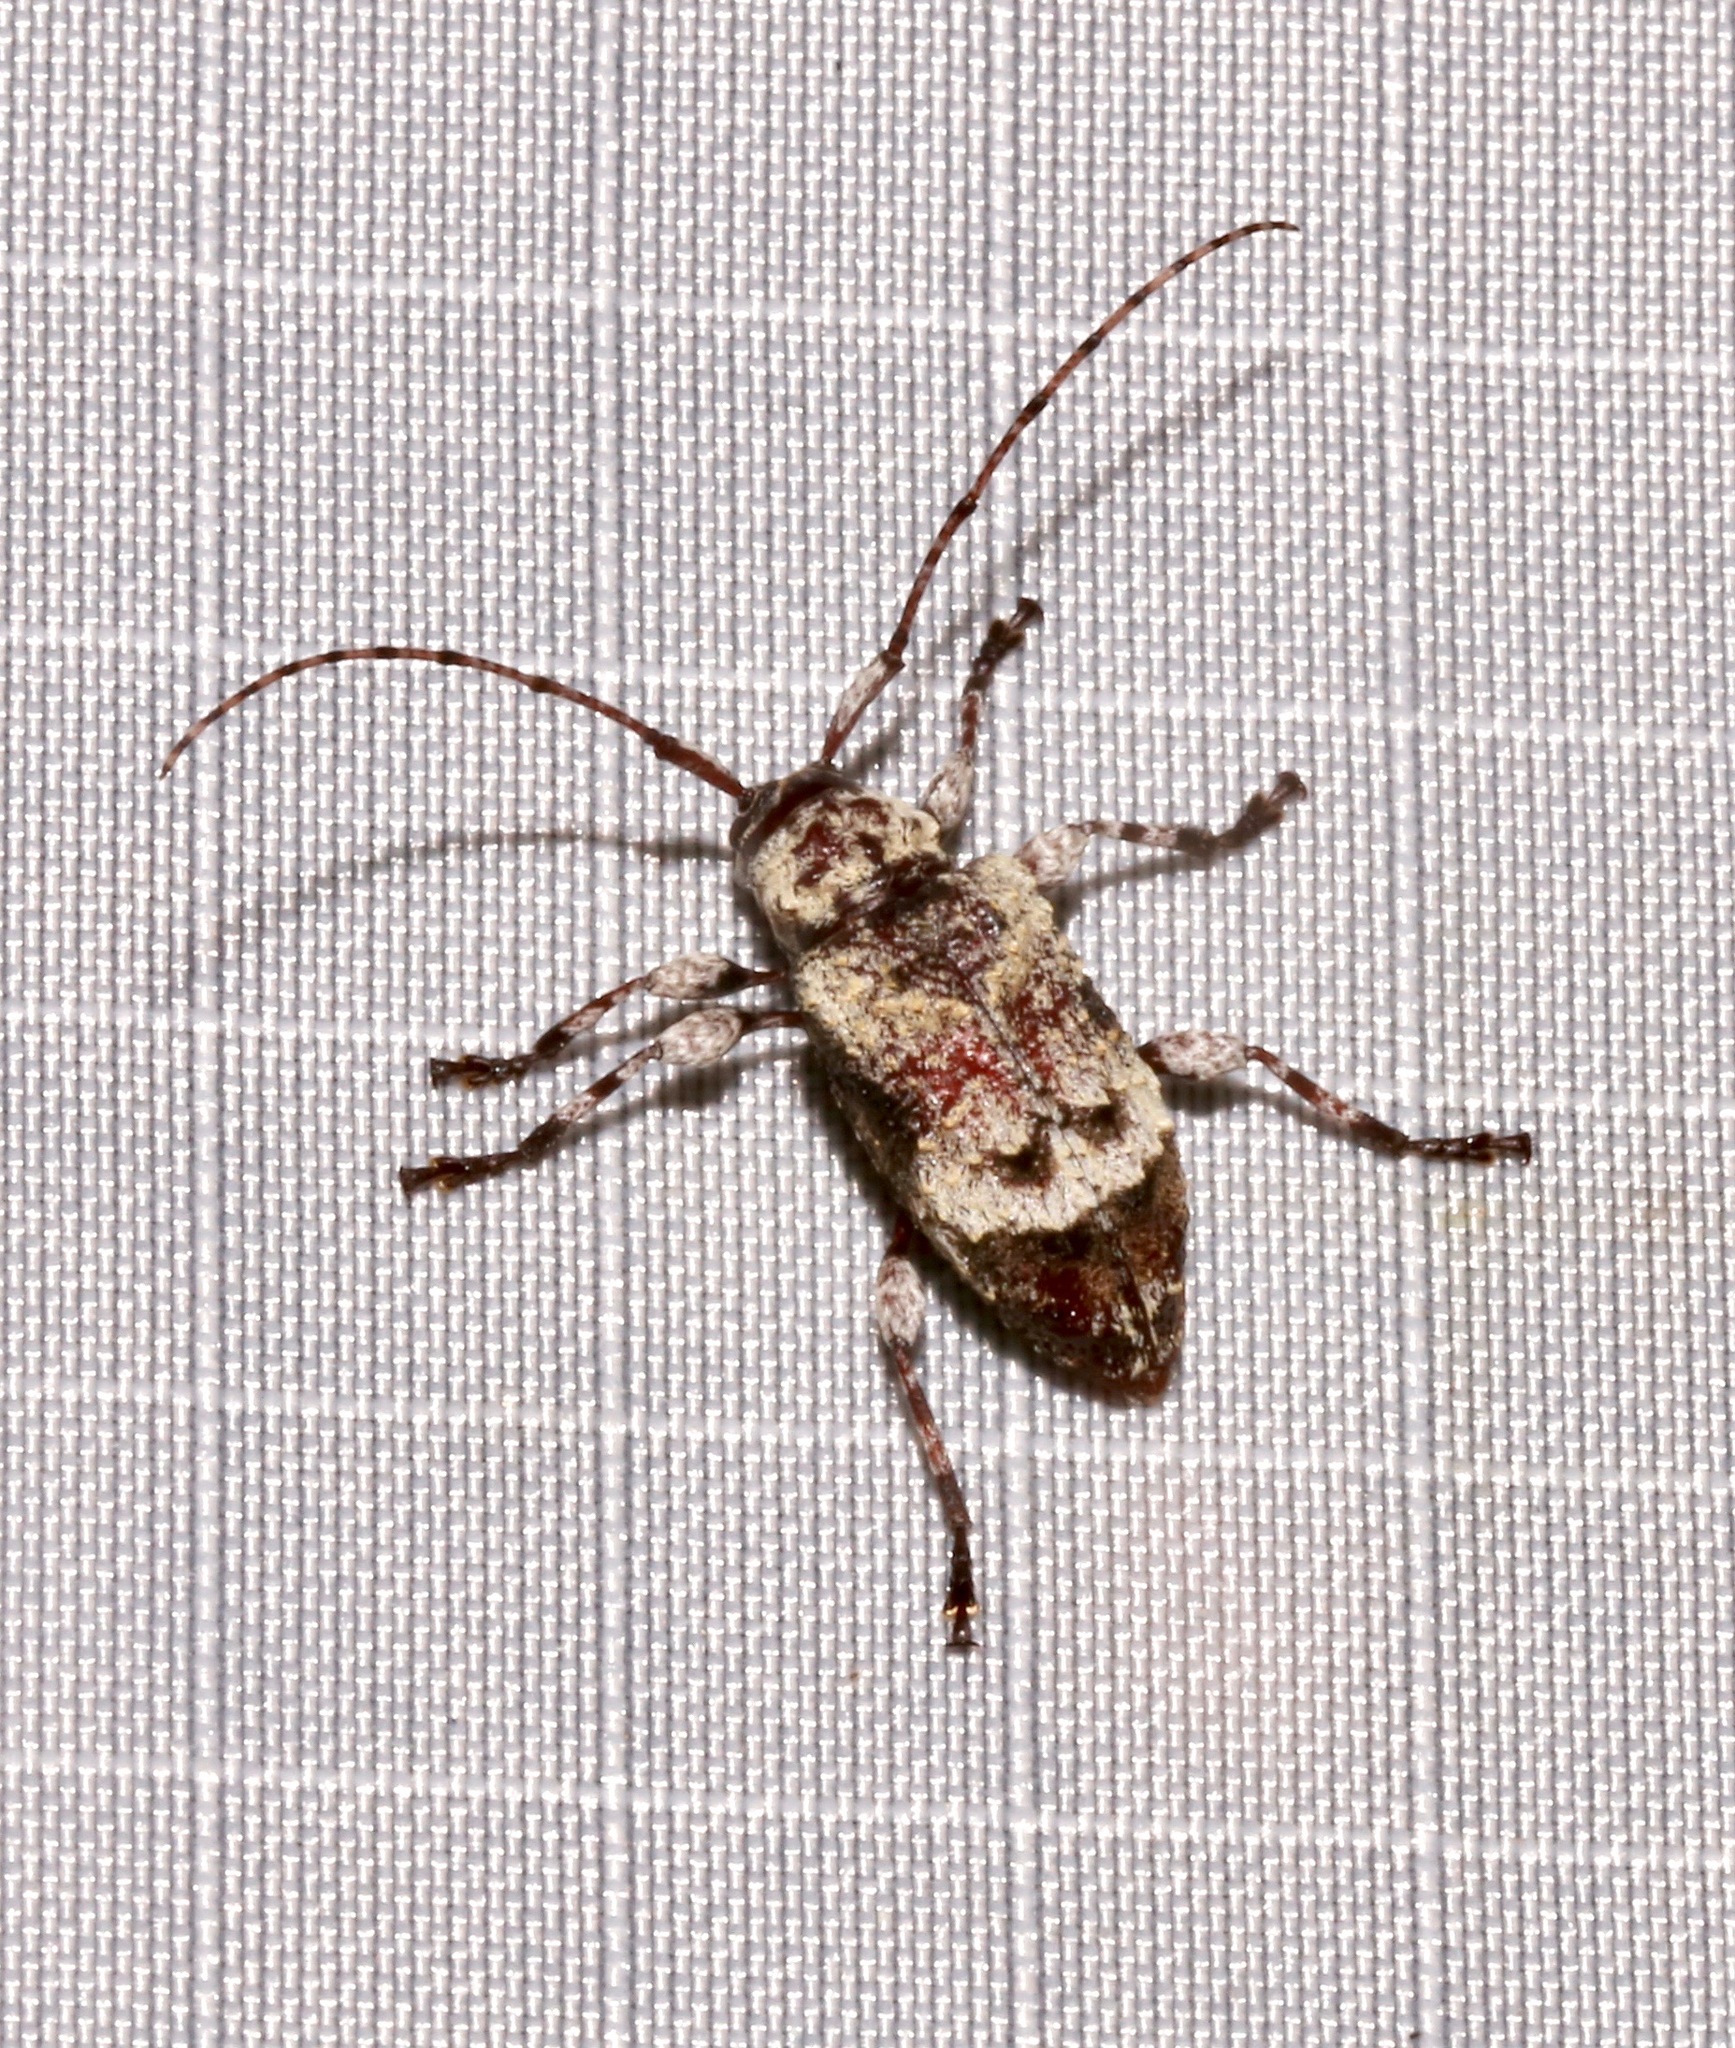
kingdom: Animalia
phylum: Arthropoda
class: Insecta
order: Coleoptera
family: Cerambycidae
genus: Leptostylus
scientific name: Leptostylus asperatus
